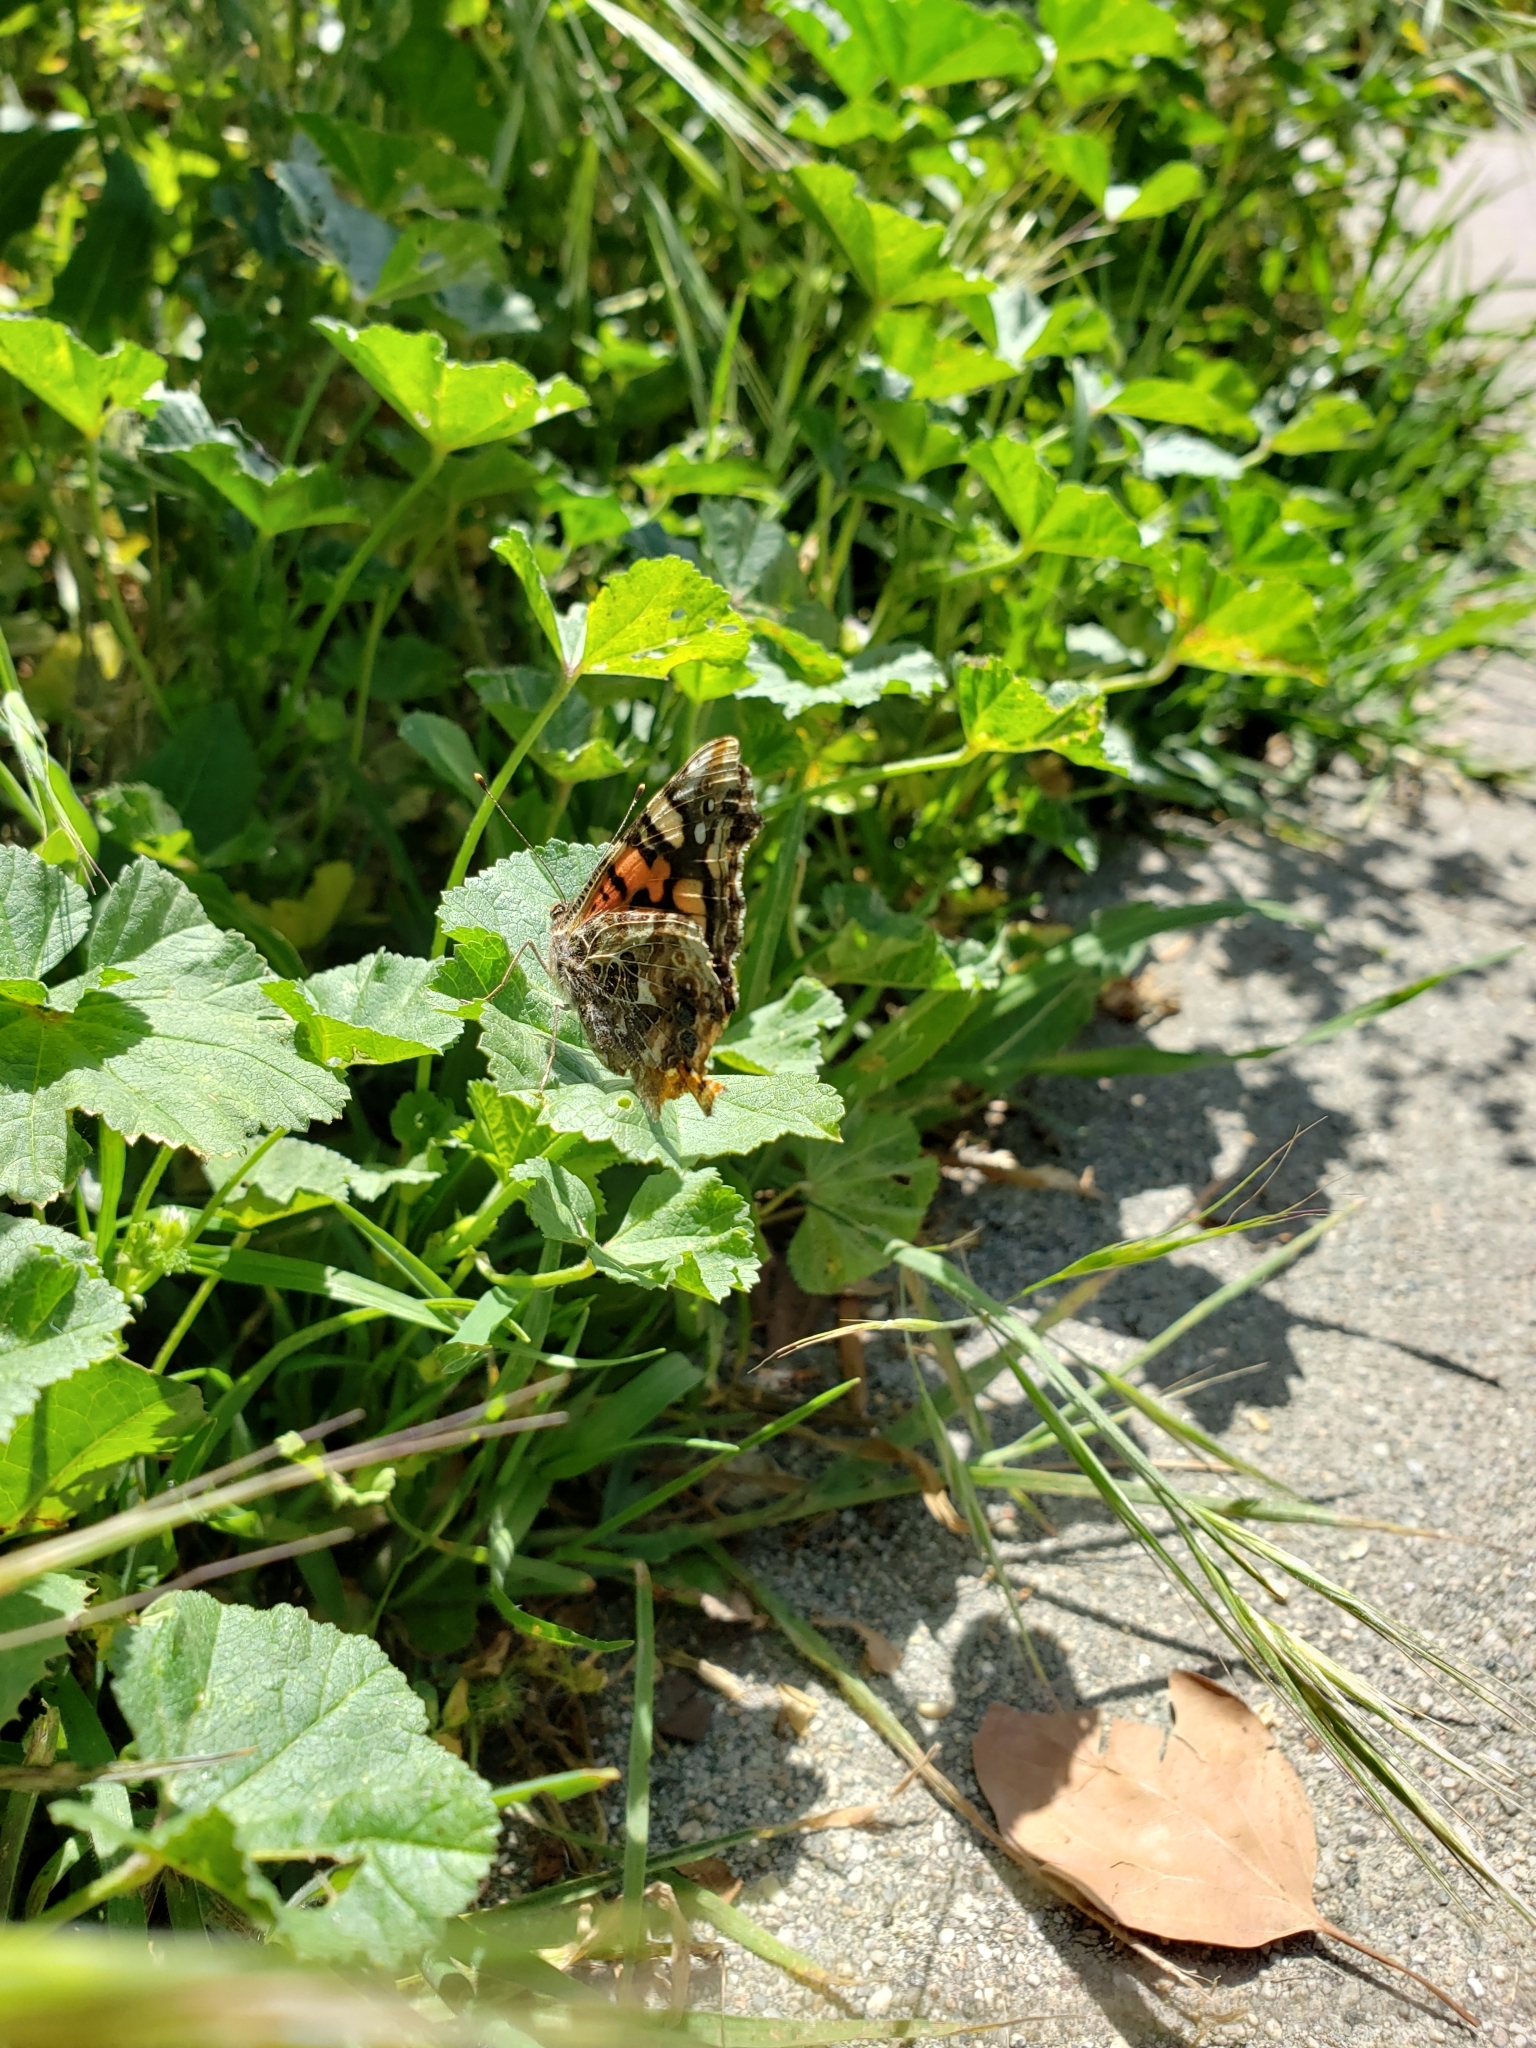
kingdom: Animalia
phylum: Arthropoda
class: Insecta
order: Lepidoptera
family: Nymphalidae
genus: Vanessa
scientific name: Vanessa annabella
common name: West coast lady
